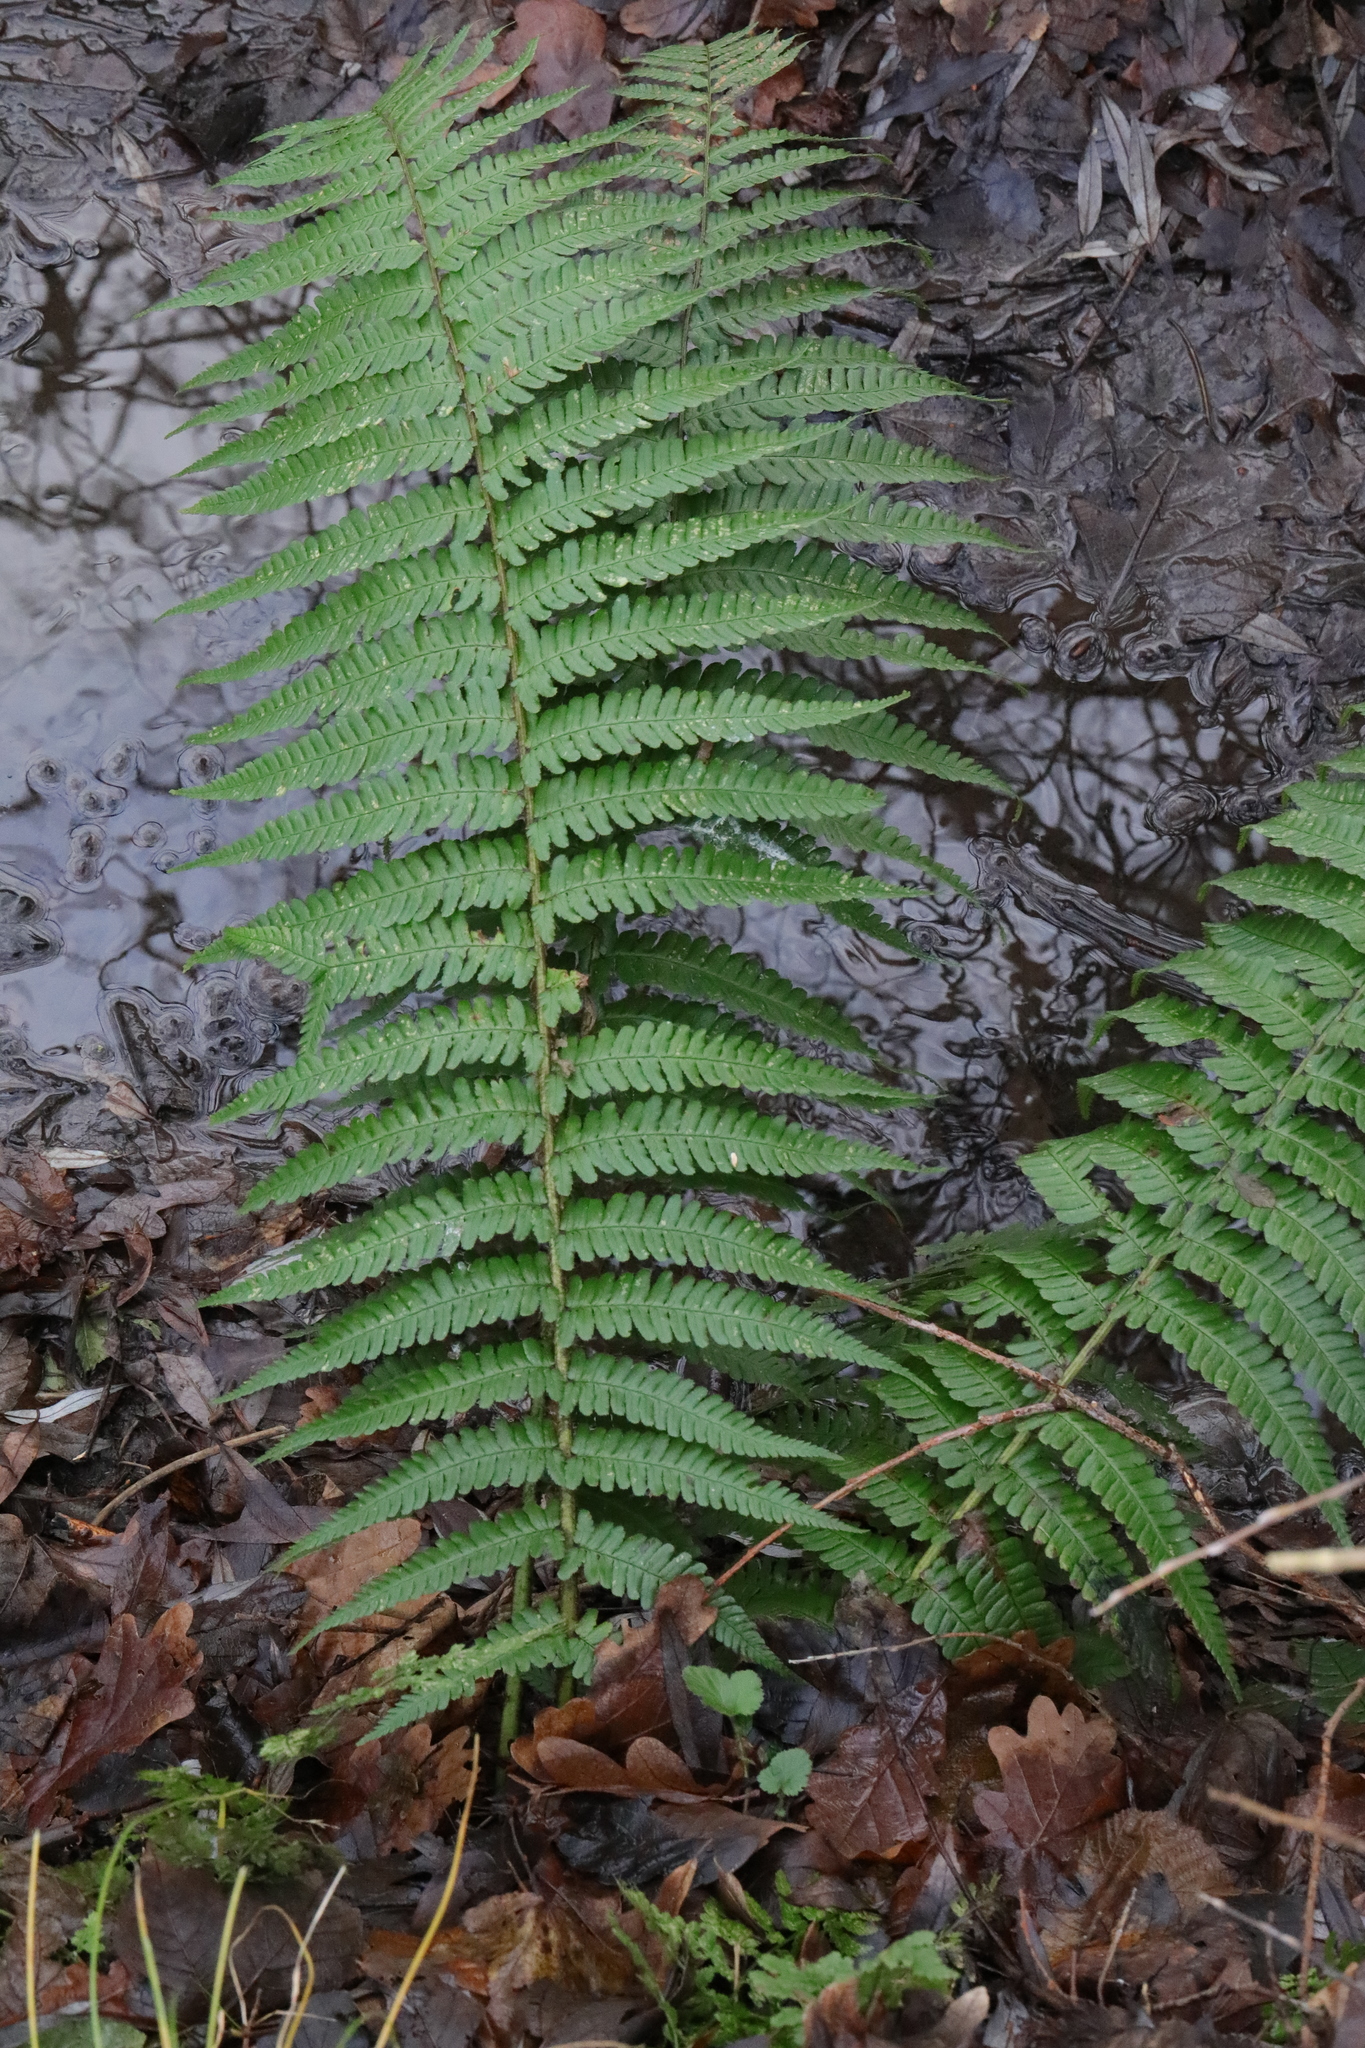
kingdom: Plantae
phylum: Tracheophyta
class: Polypodiopsida
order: Polypodiales
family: Dryopteridaceae
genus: Dryopteris
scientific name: Dryopteris filix-mas
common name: Male fern
